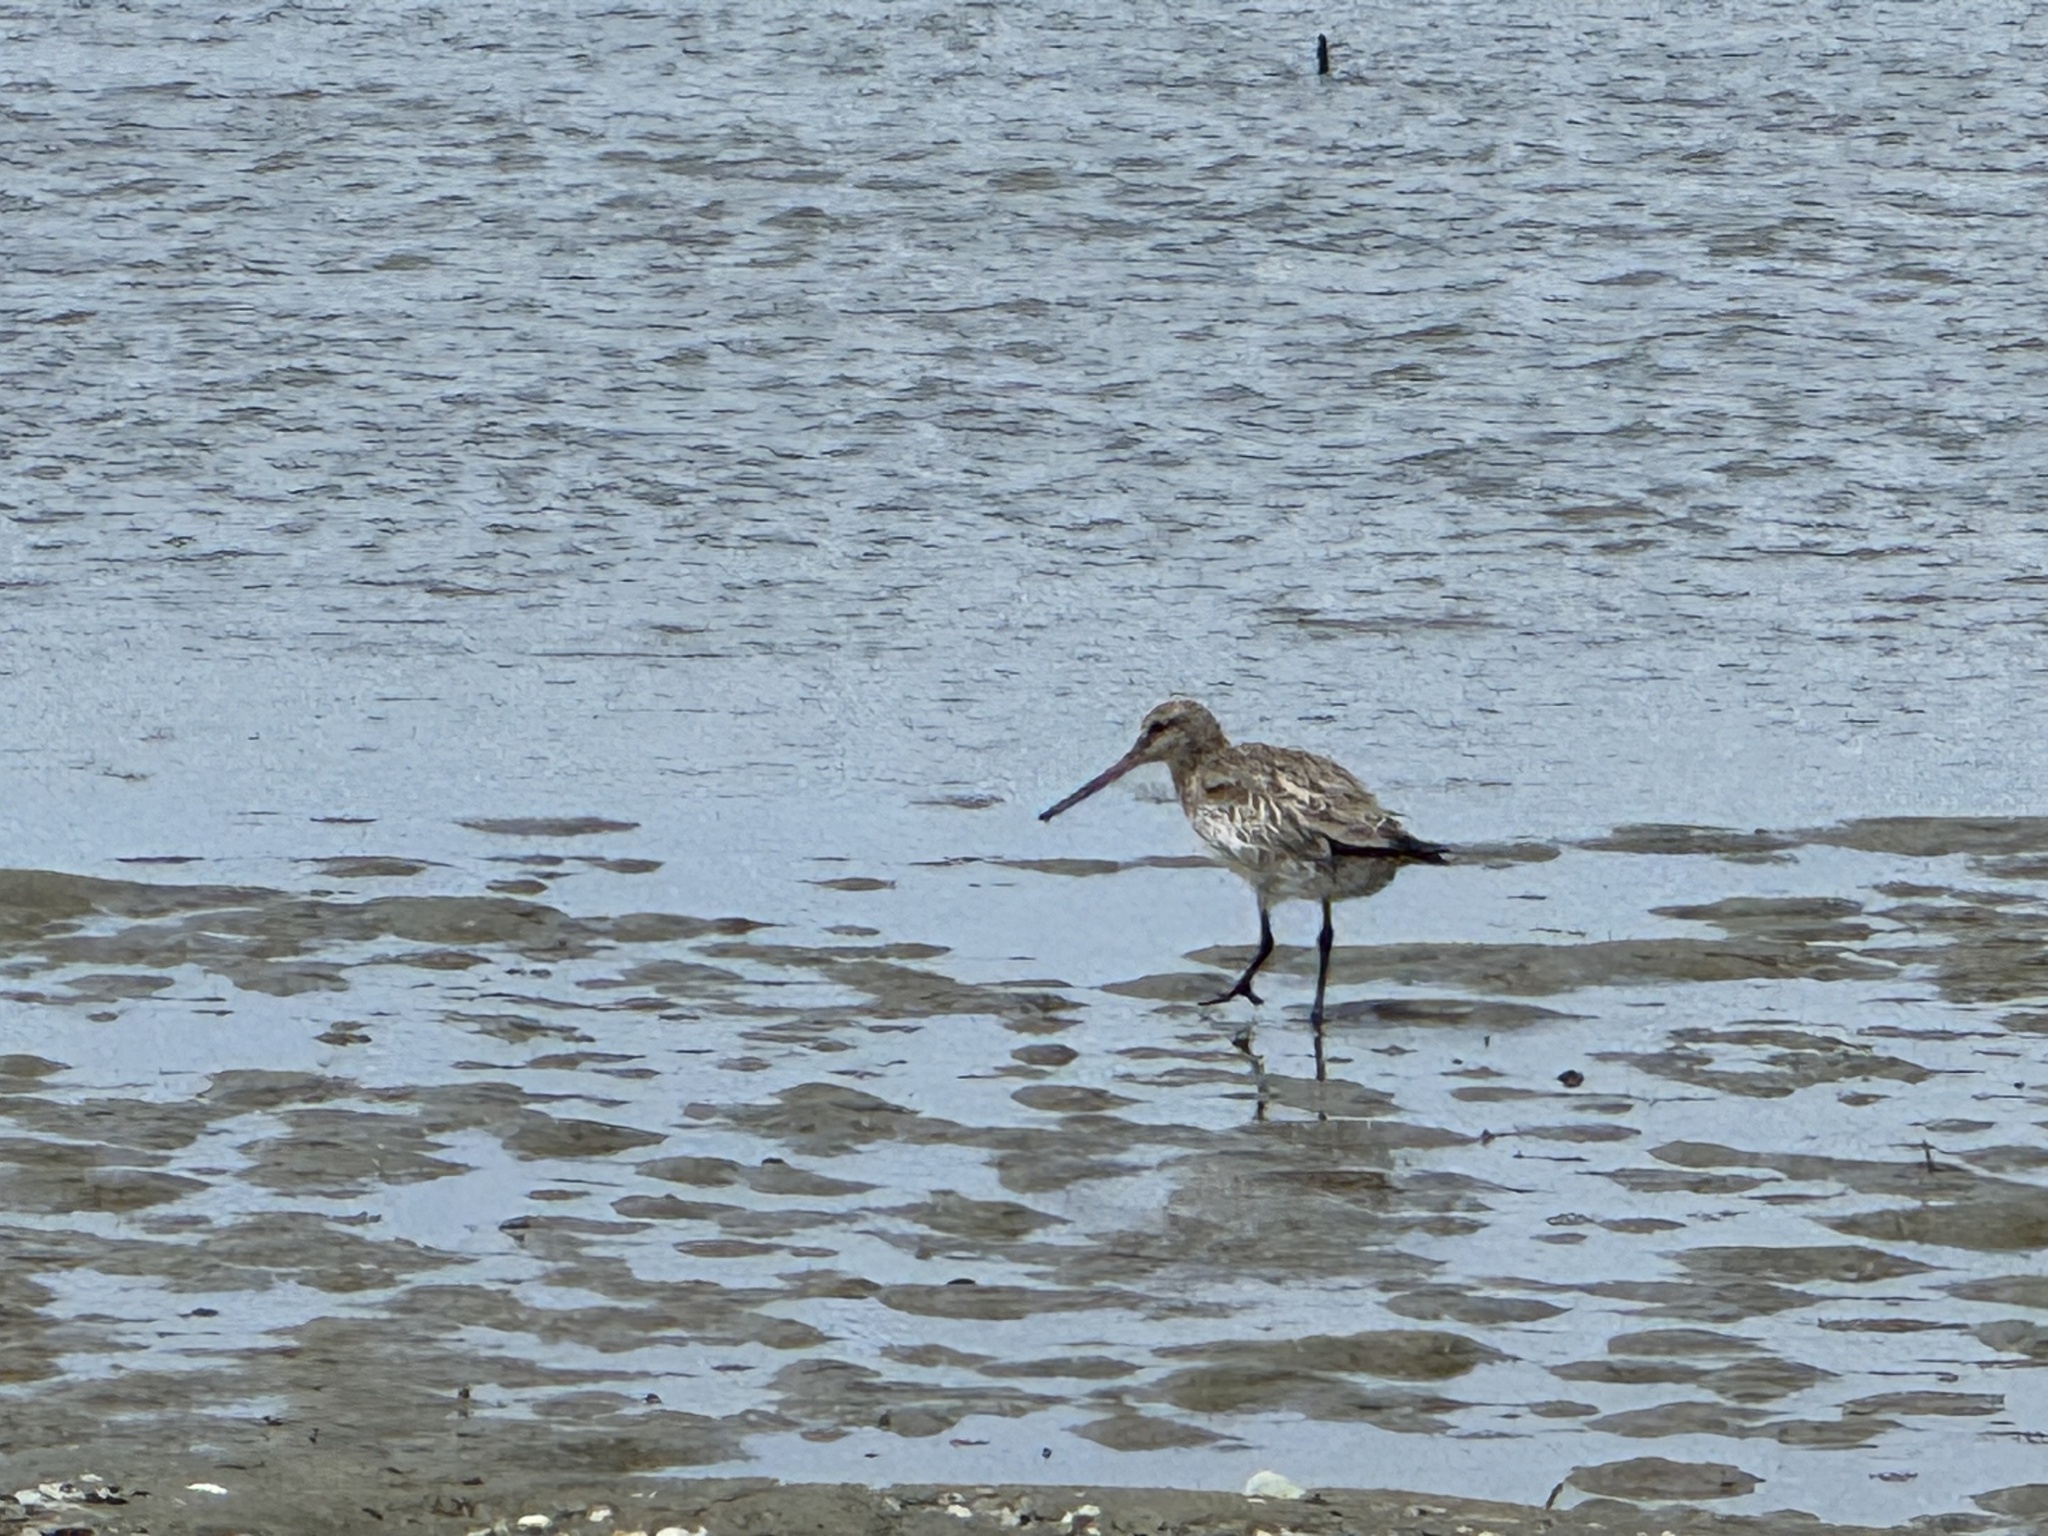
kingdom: Animalia
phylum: Chordata
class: Aves
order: Charadriiformes
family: Scolopacidae
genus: Limosa
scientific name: Limosa lapponica
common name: Bar-tailed godwit
